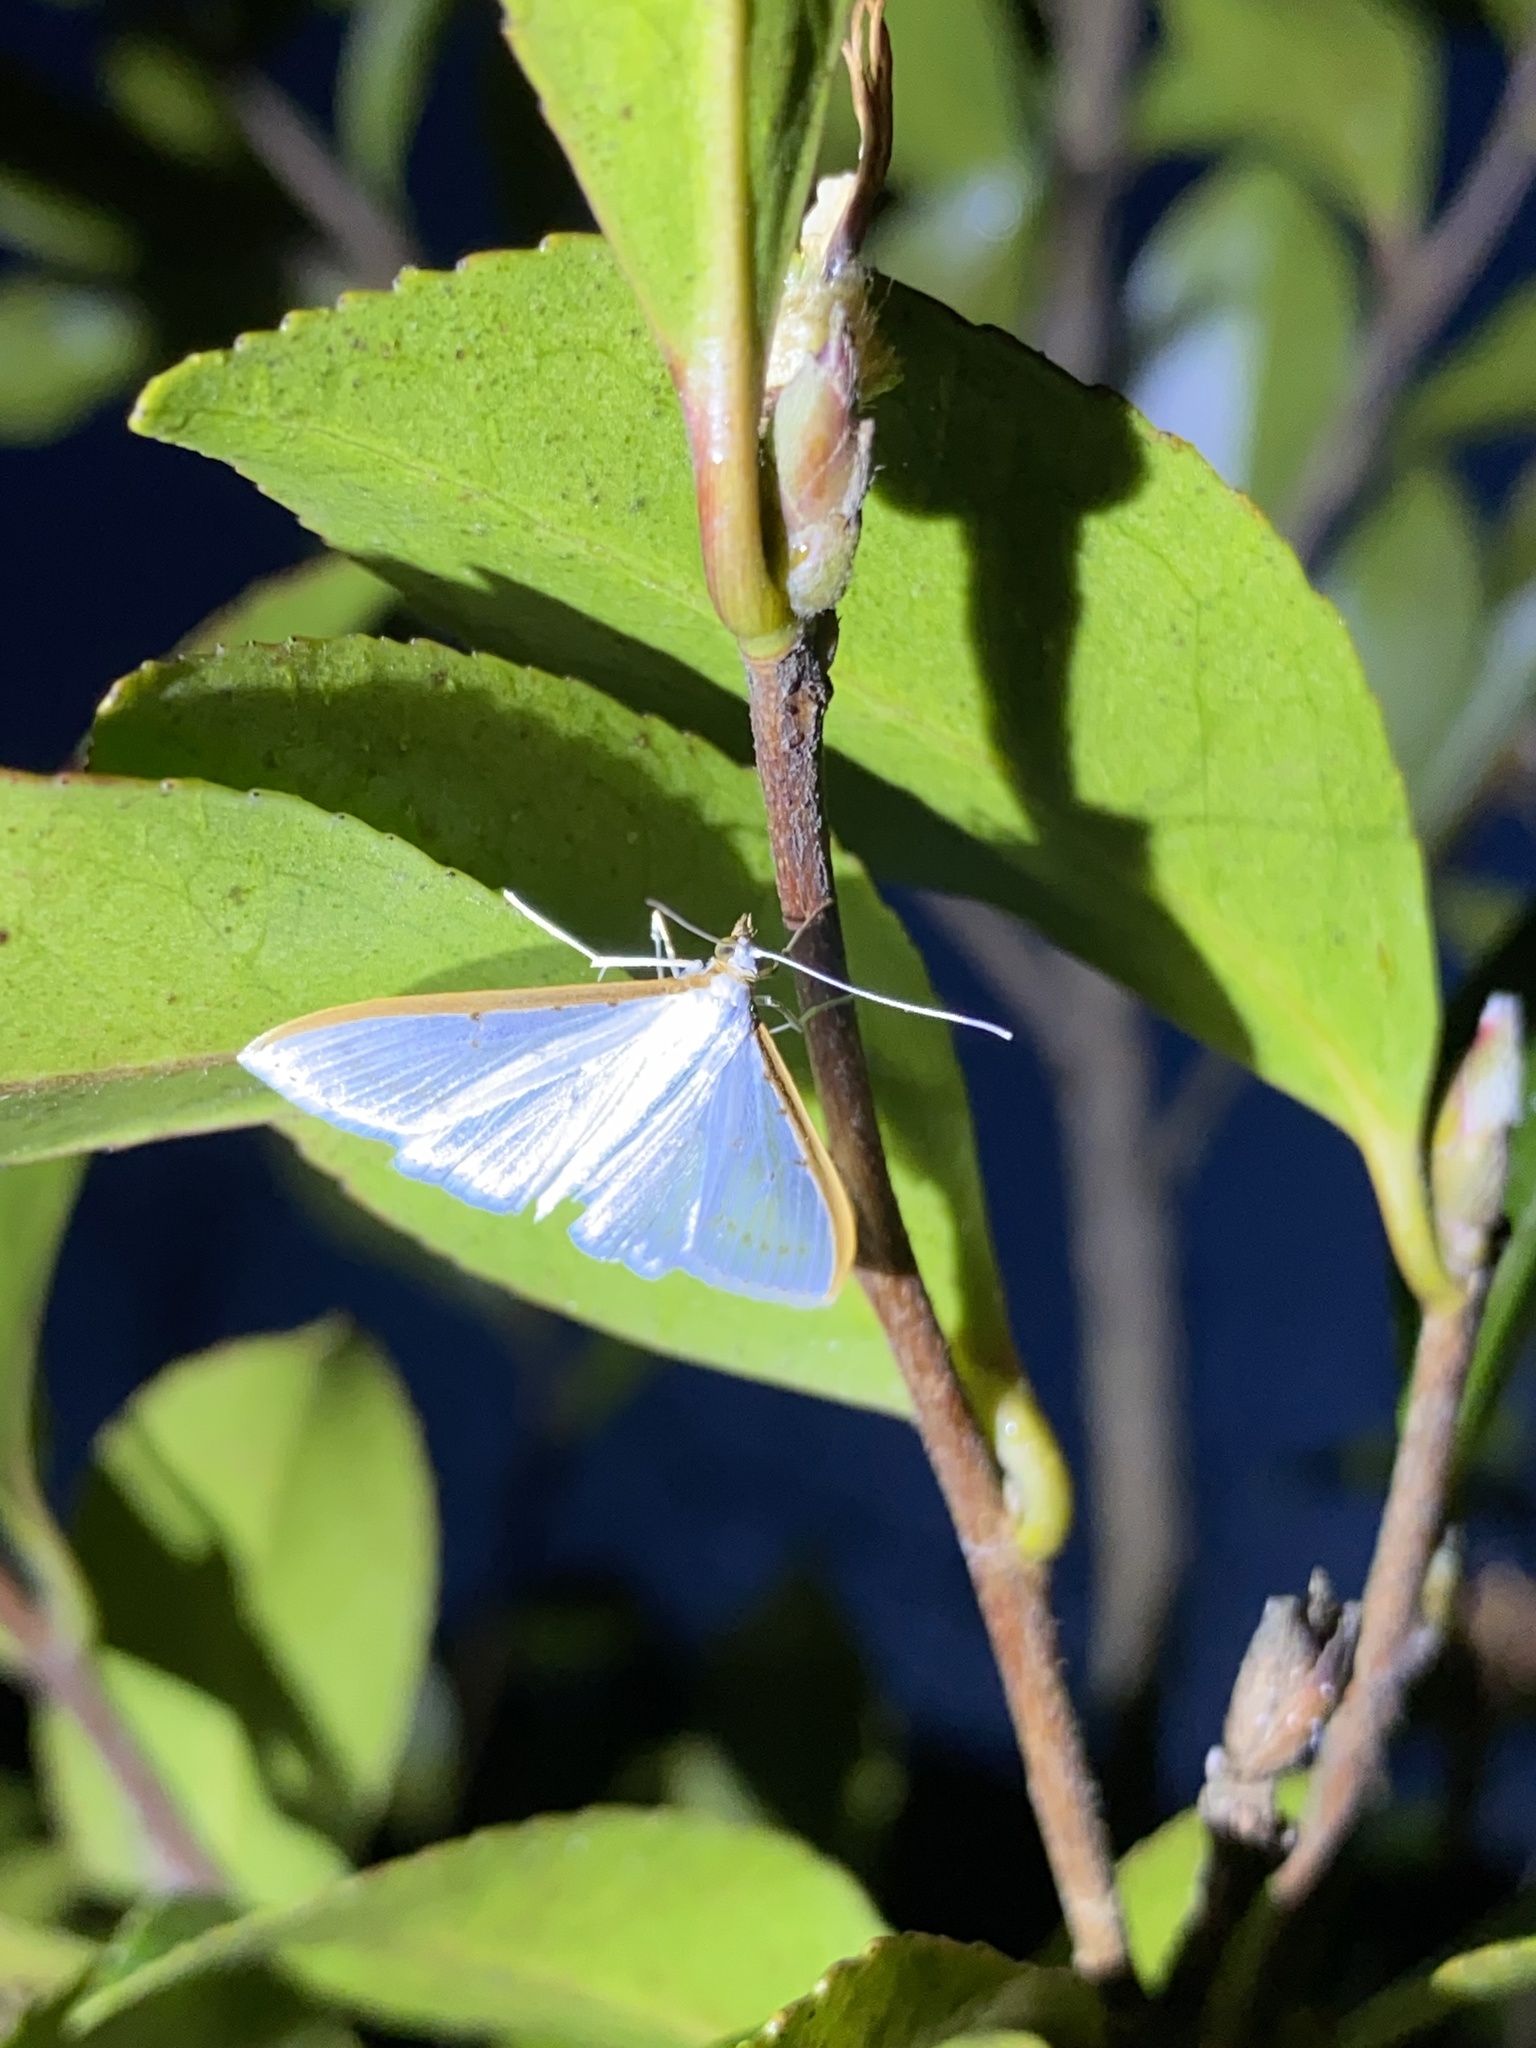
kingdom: Animalia
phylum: Arthropoda
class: Insecta
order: Lepidoptera
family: Crambidae
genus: Palpita
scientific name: Palpita nigropunctalis
